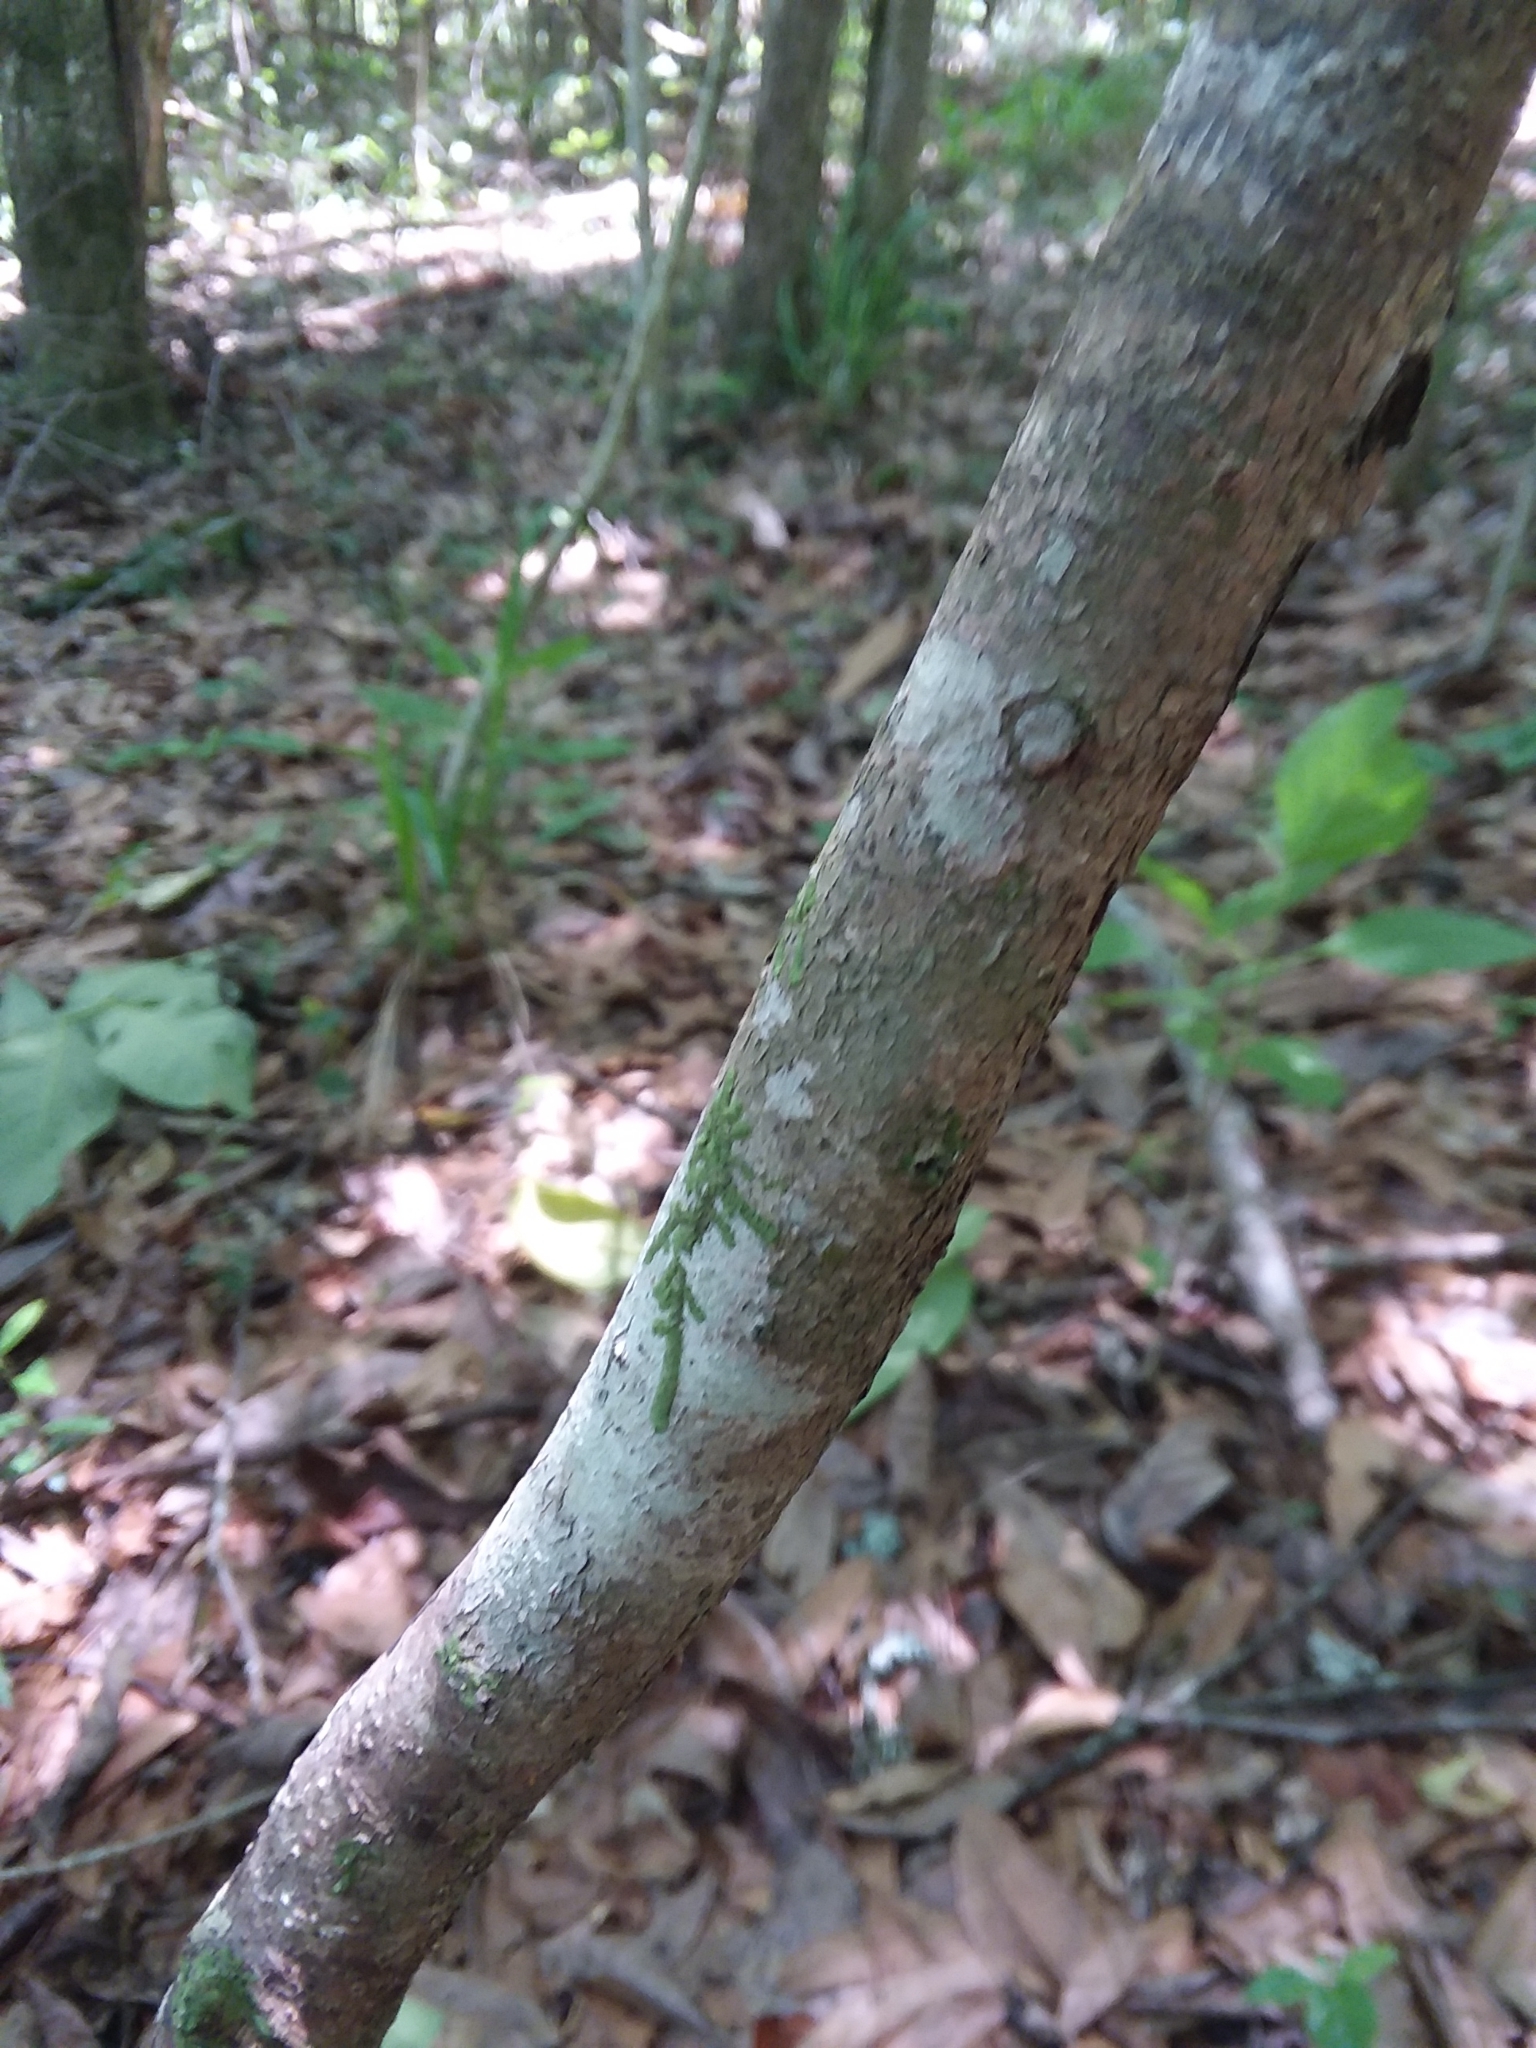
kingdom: Plantae
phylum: Tracheophyta
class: Magnoliopsida
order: Saxifragales
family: Hamamelidaceae
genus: Hamamelis
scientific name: Hamamelis virginiana
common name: Witch-hazel
